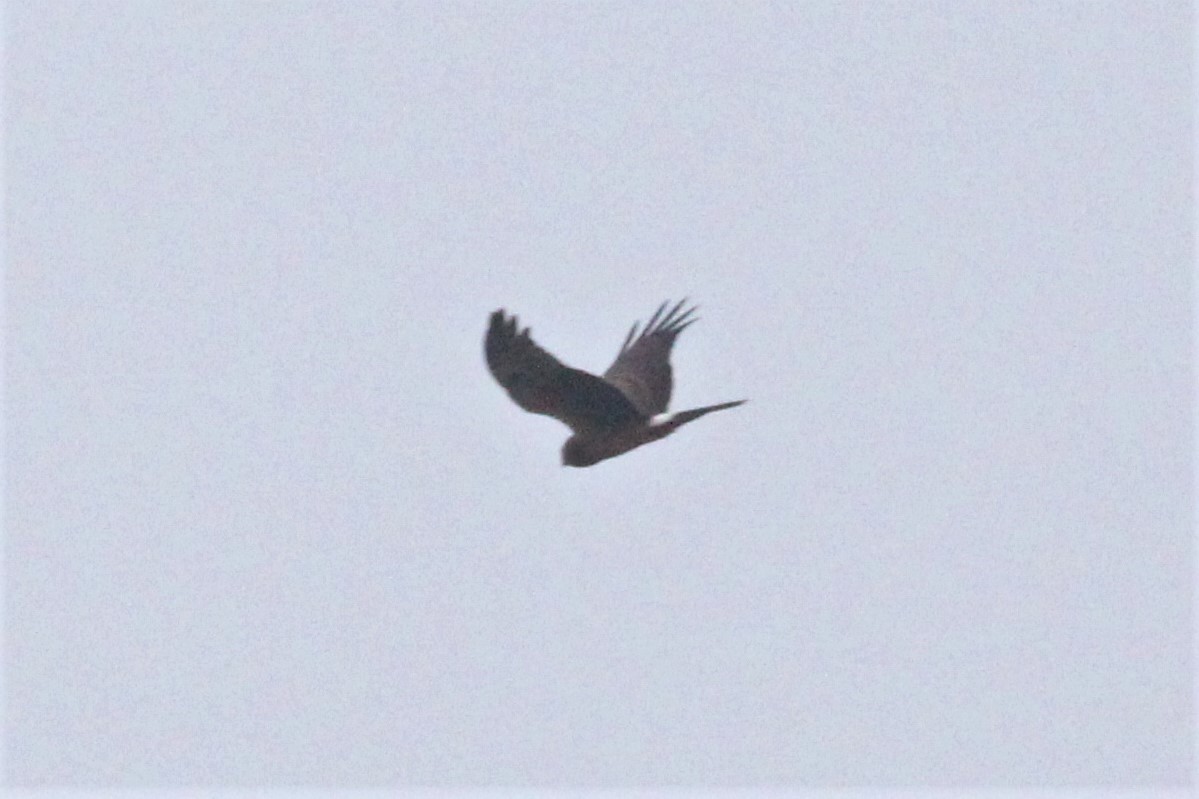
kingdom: Animalia
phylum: Chordata
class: Aves
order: Accipitriformes
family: Accipitridae
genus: Circus
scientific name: Circus cyaneus
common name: Hen harrier
